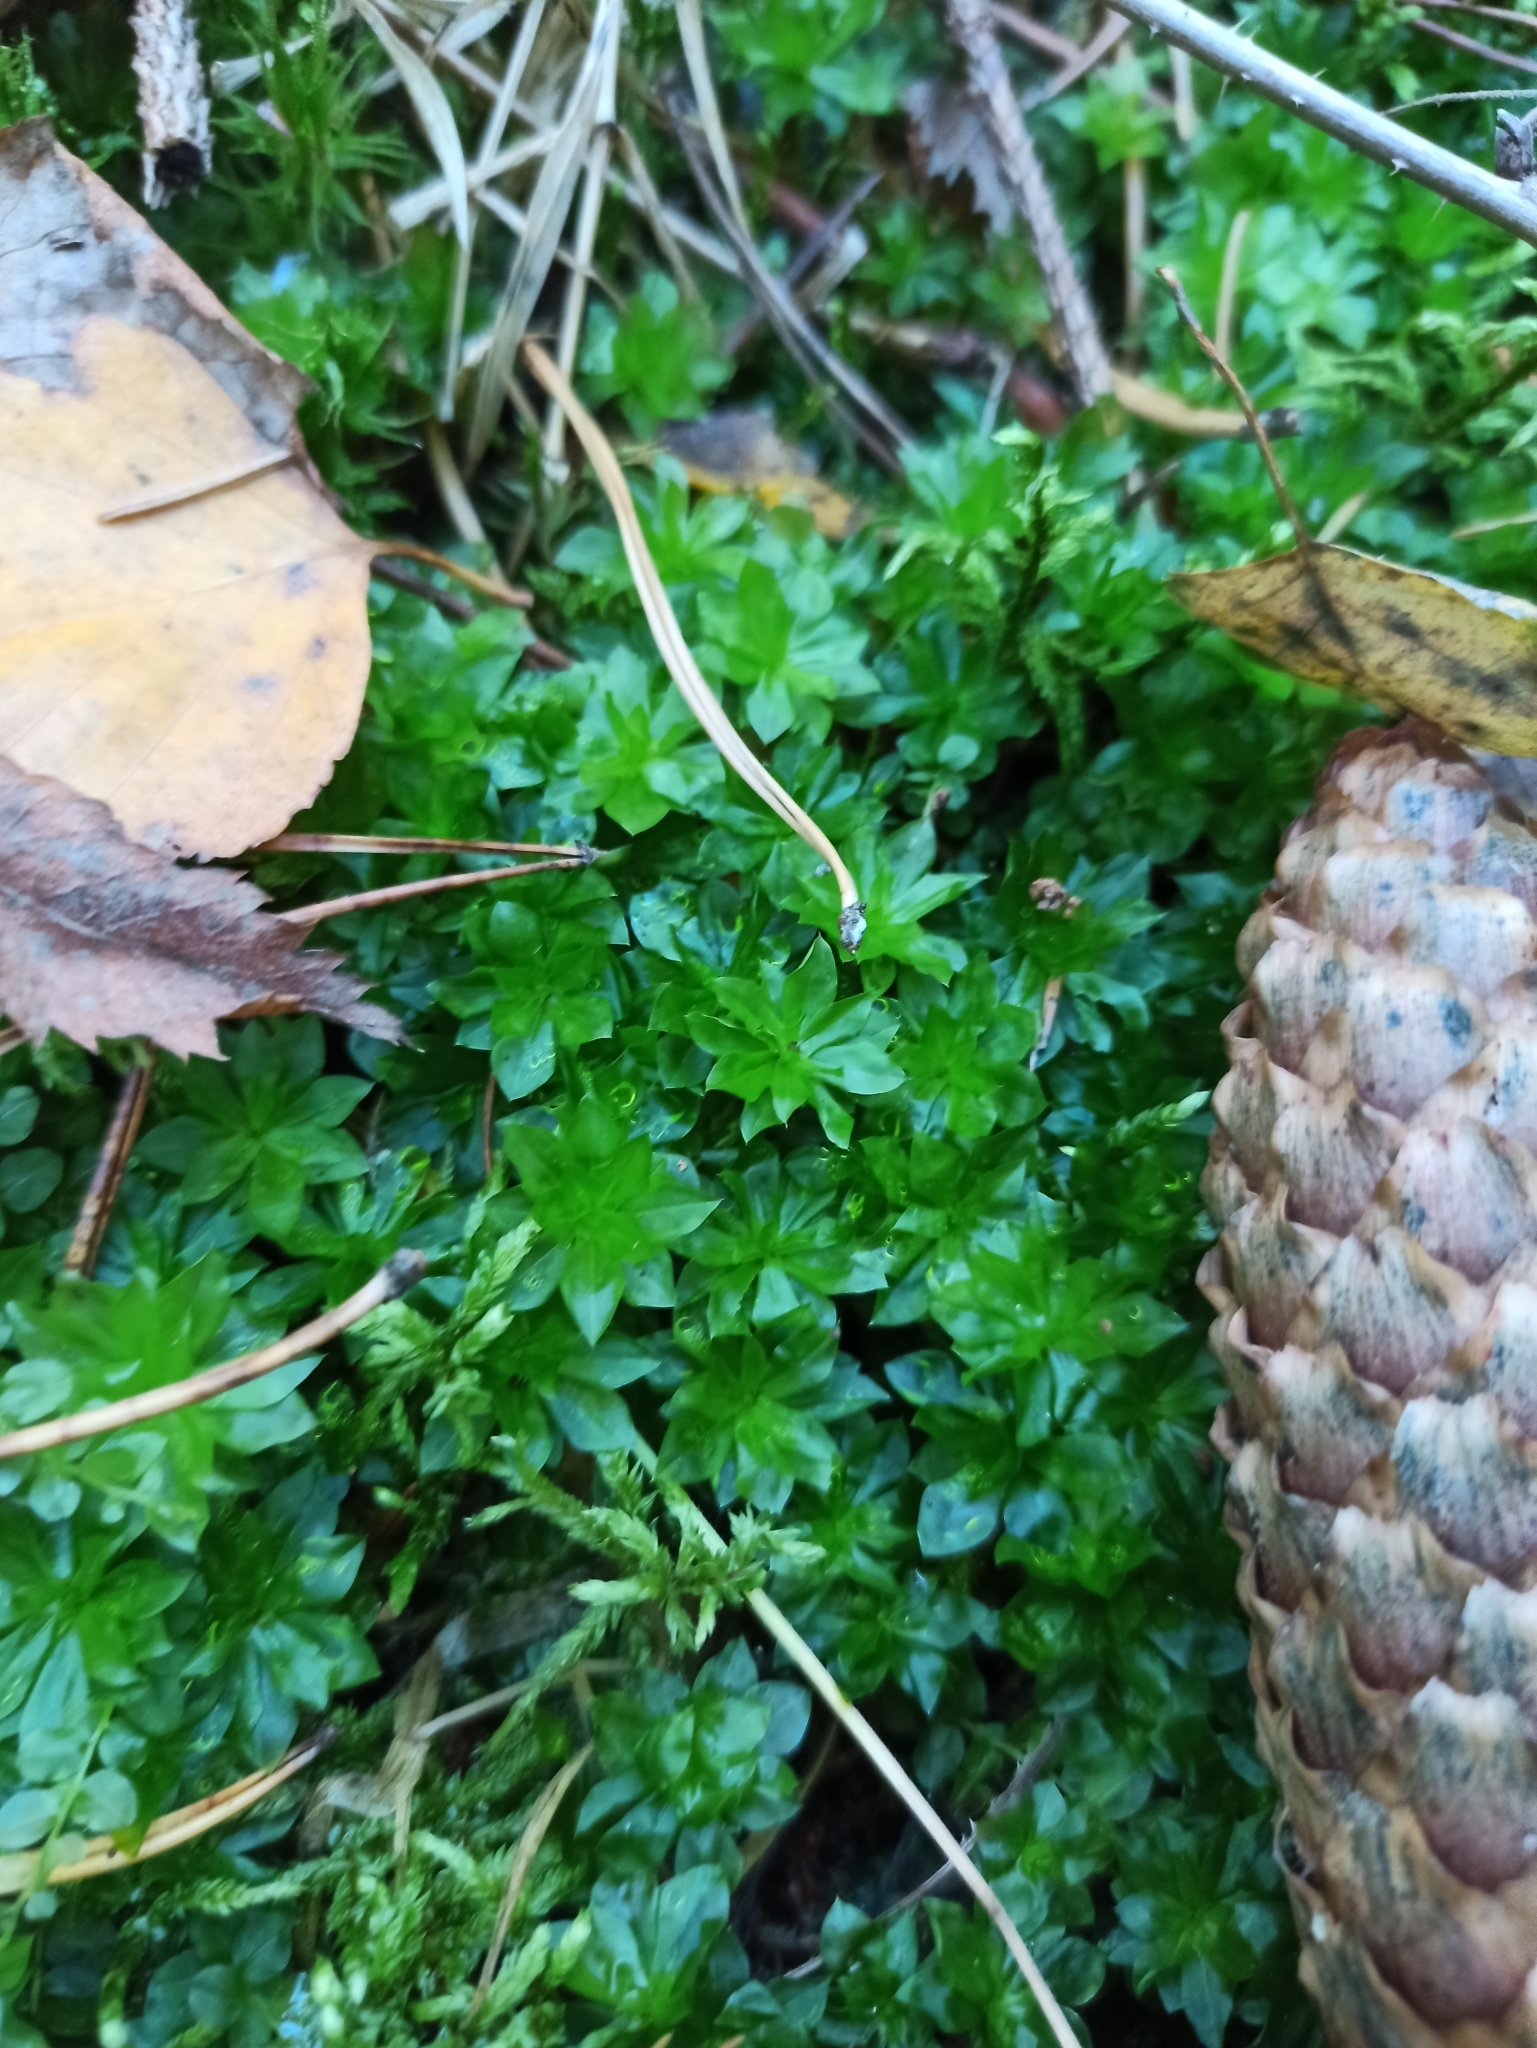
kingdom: Plantae
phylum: Bryophyta
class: Bryopsida
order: Bryales
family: Bryaceae
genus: Rhodobryum
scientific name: Rhodobryum roseum
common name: Rose-moss
